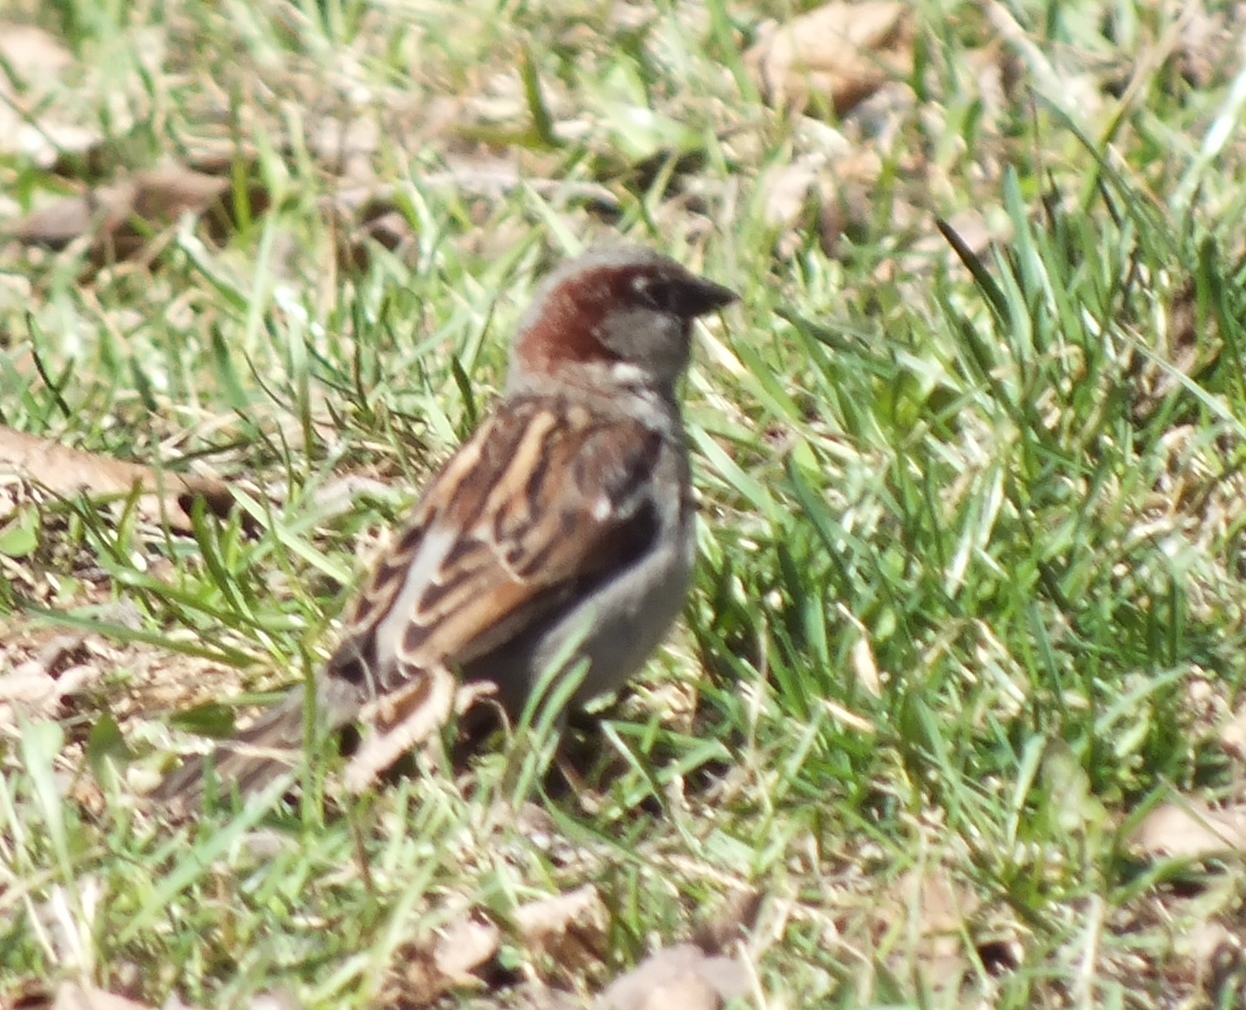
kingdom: Animalia
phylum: Chordata
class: Aves
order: Passeriformes
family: Passeridae
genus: Passer
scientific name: Passer domesticus
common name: House sparrow
